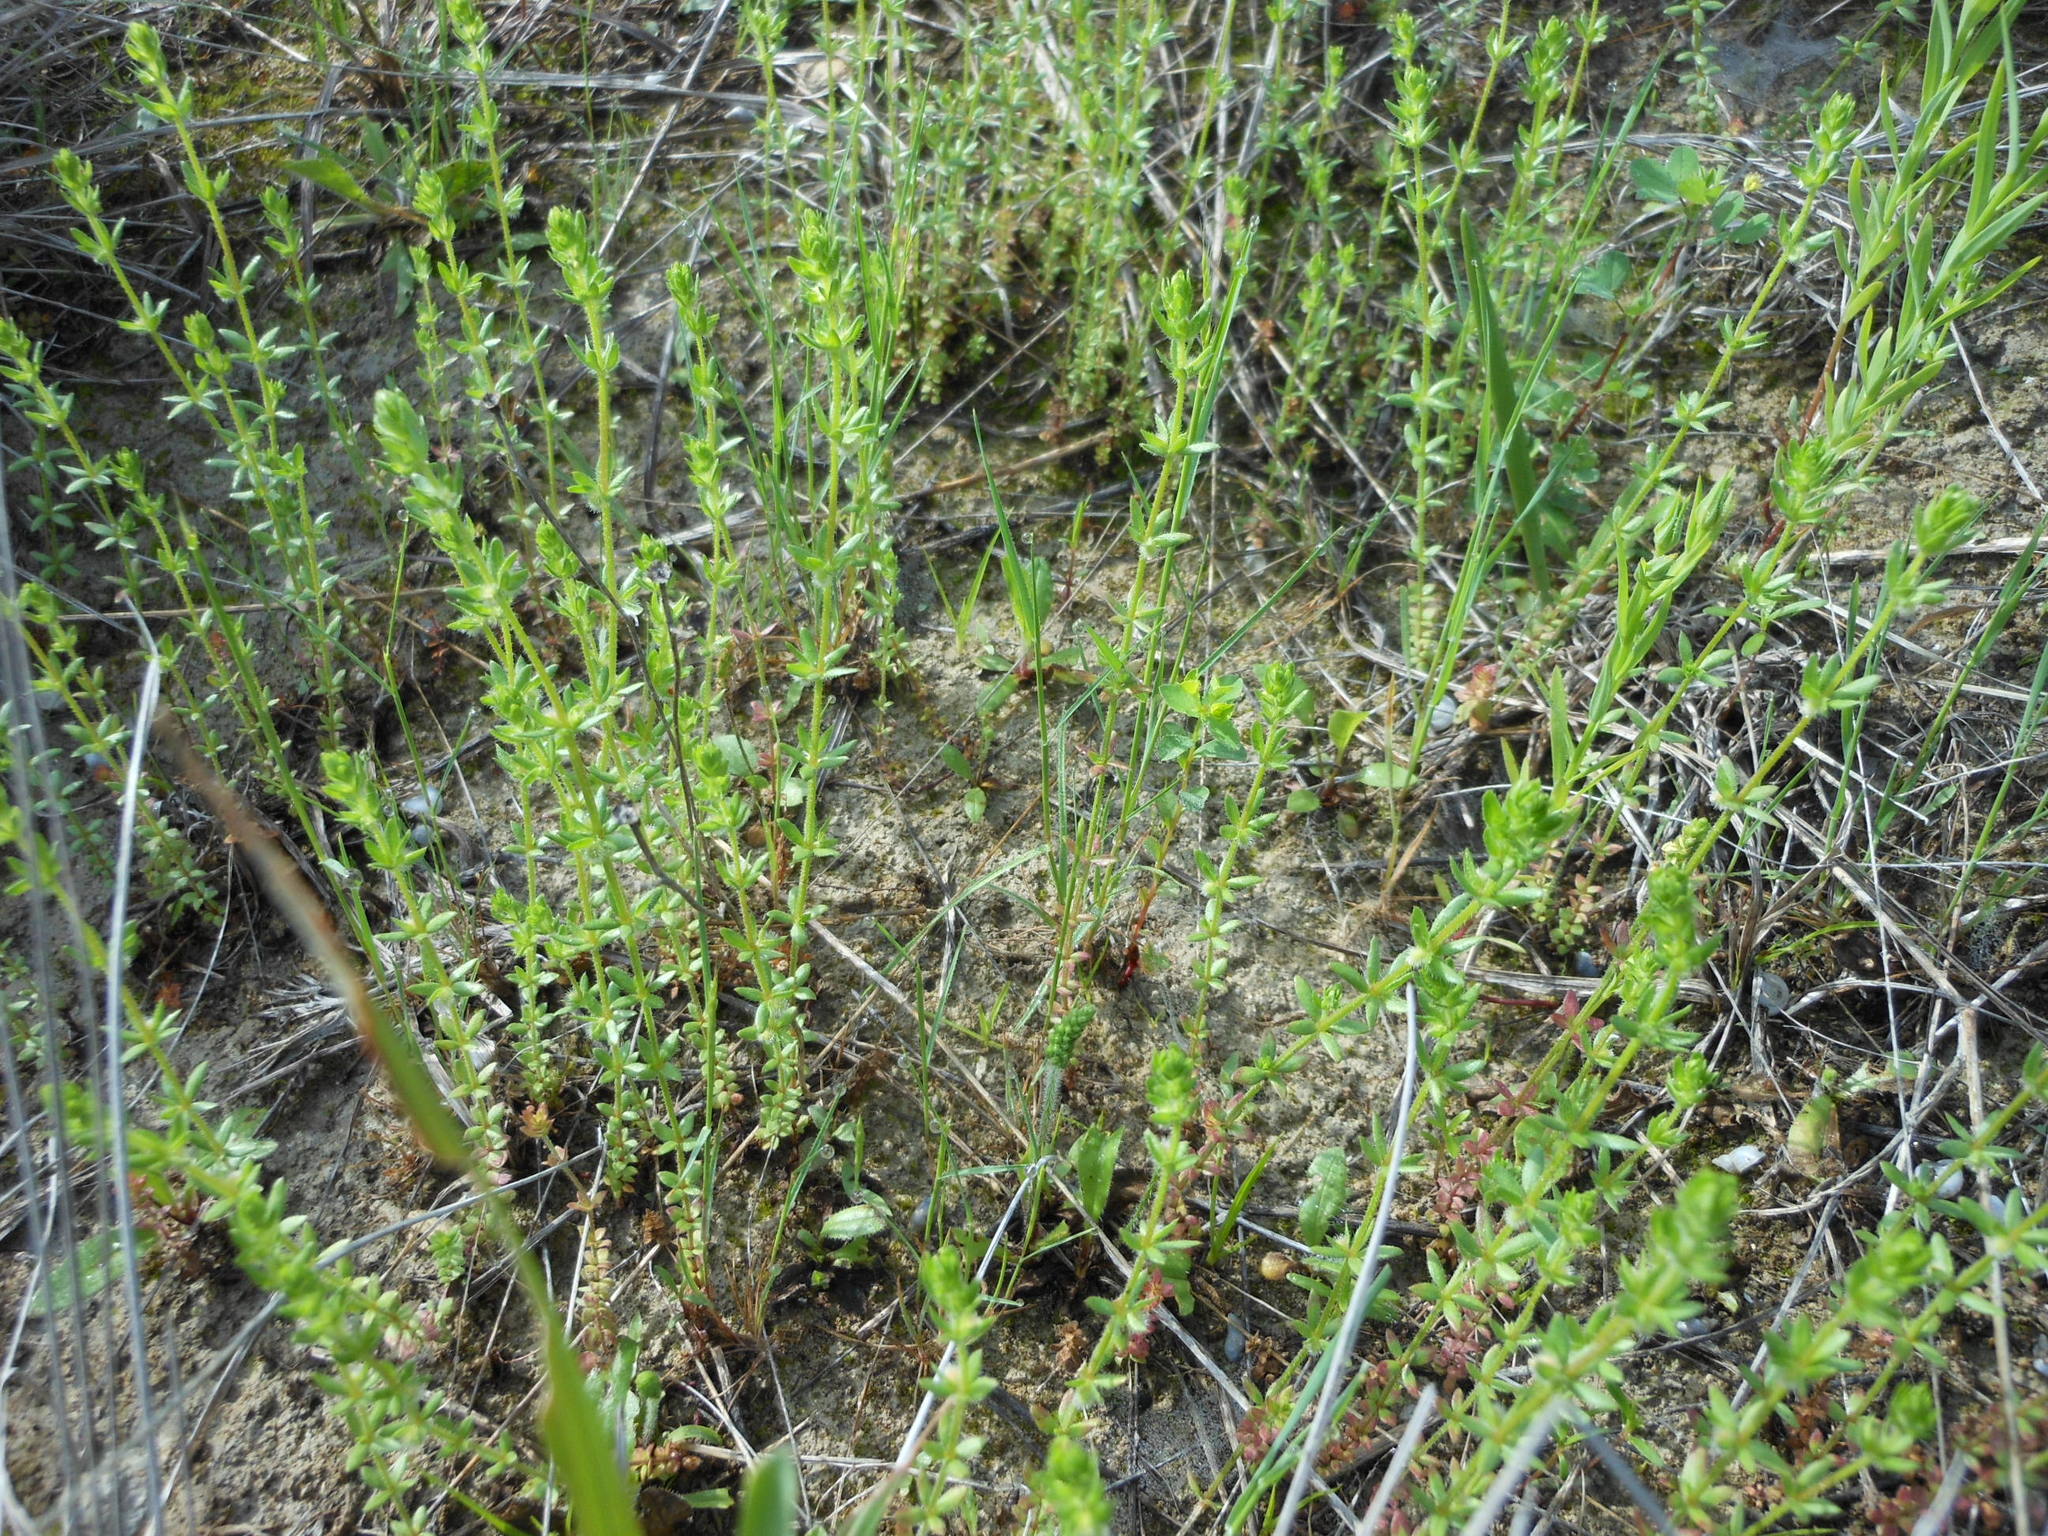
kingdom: Plantae
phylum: Tracheophyta
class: Magnoliopsida
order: Gentianales
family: Rubiaceae
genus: Galium
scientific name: Galium virgatum
